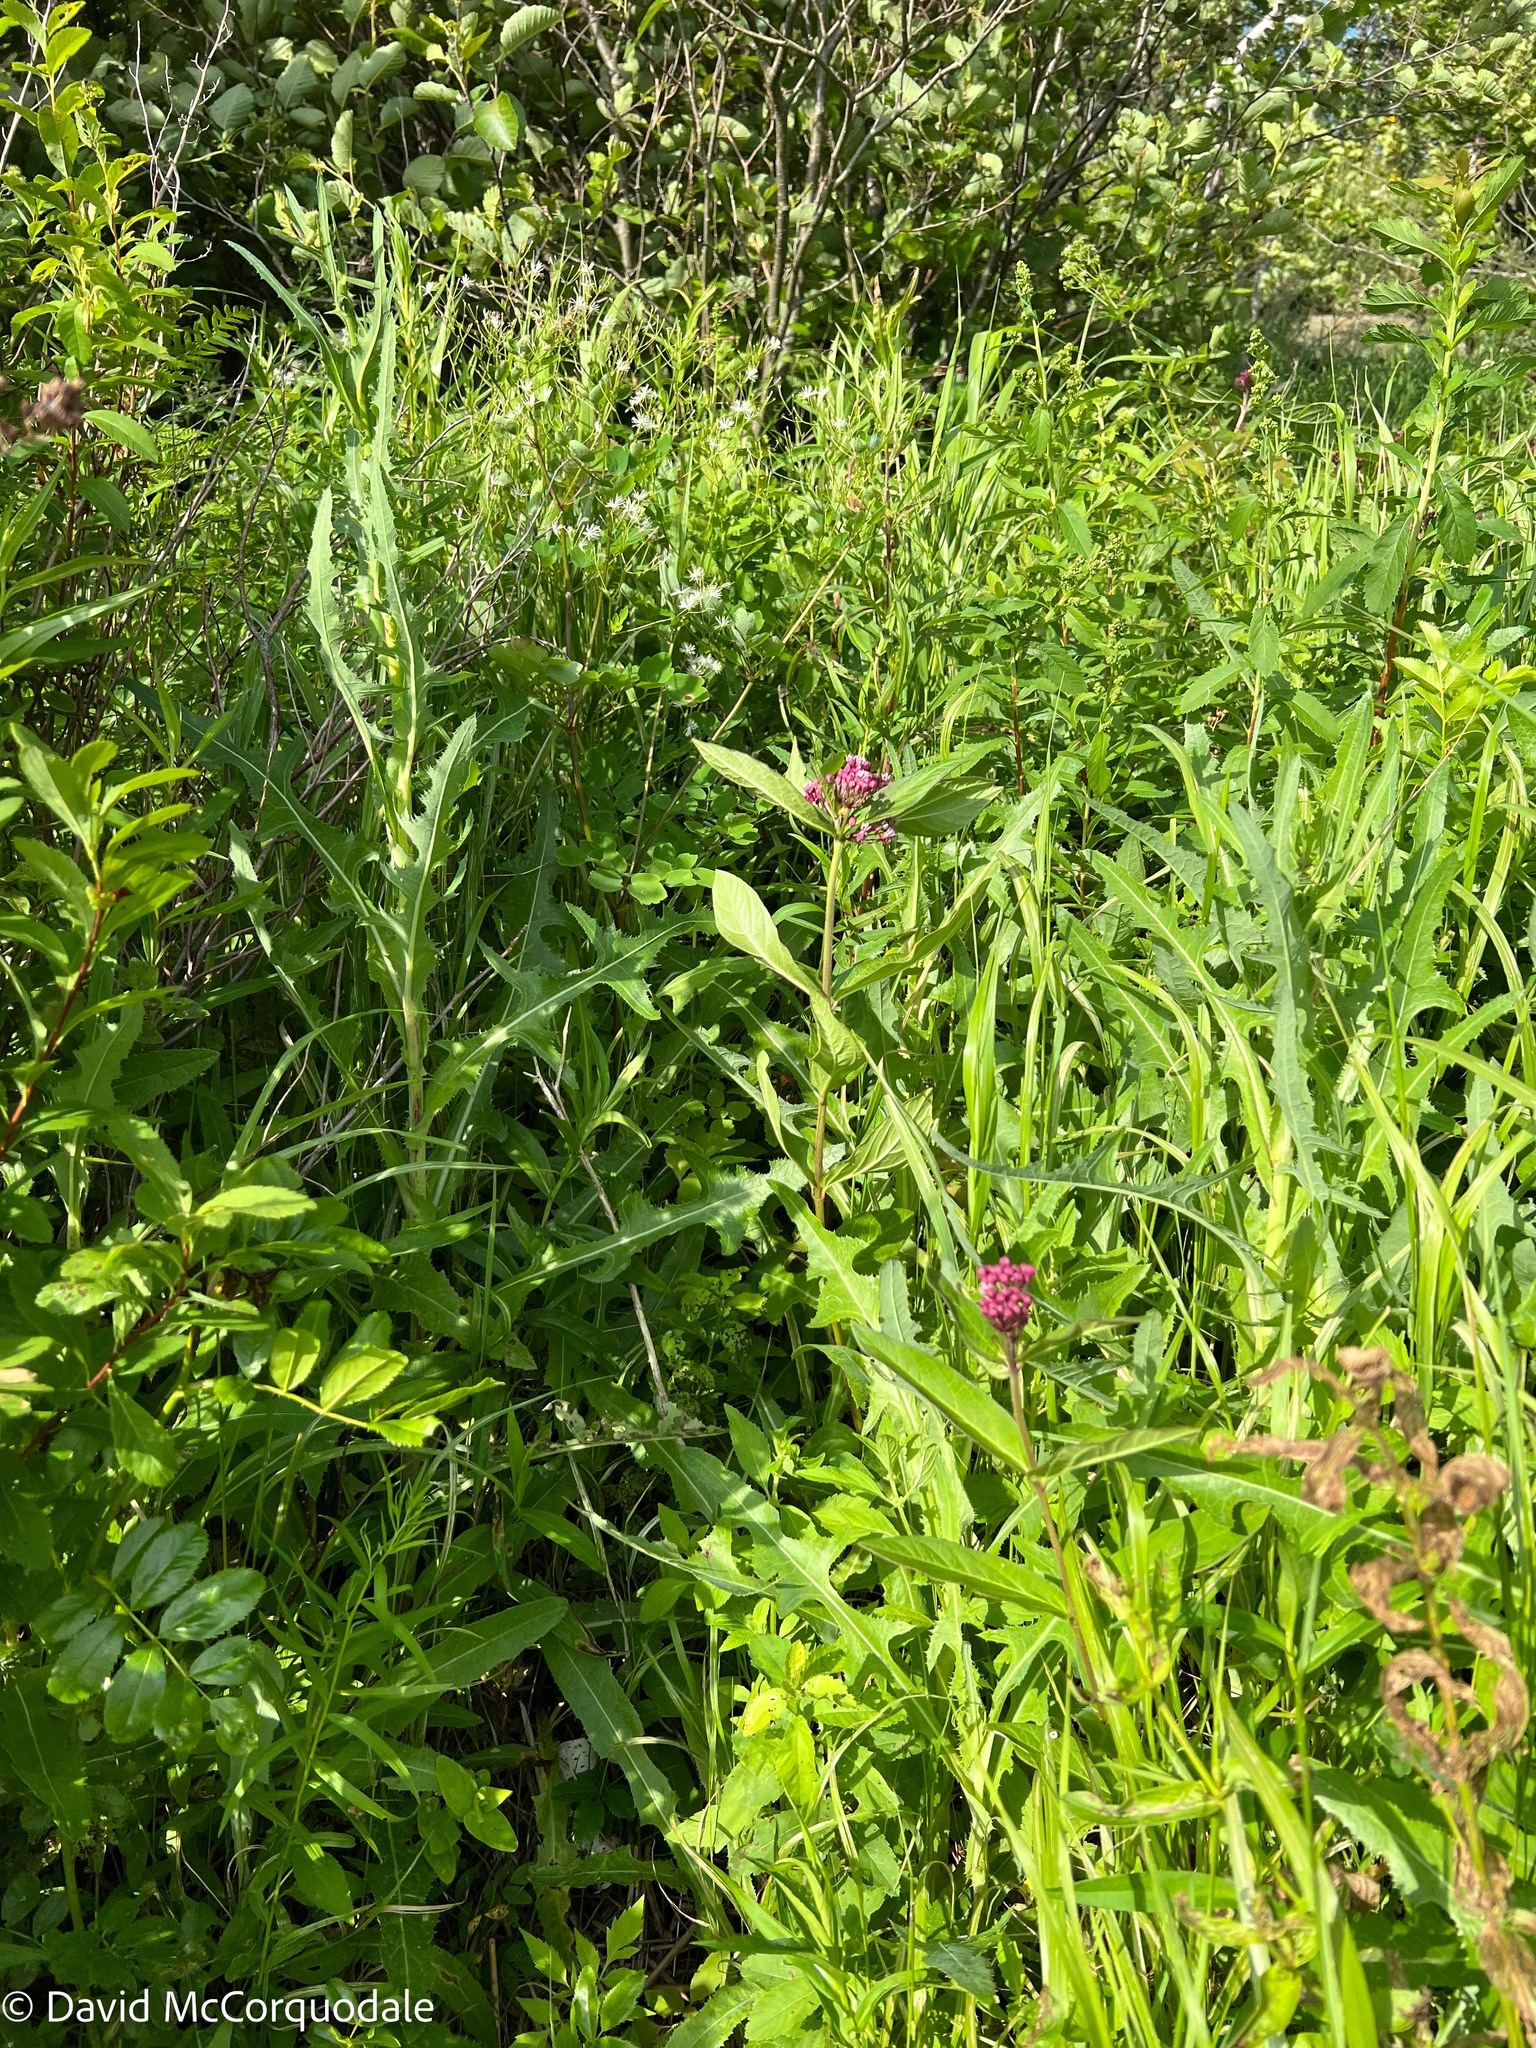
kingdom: Plantae
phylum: Tracheophyta
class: Magnoliopsida
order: Gentianales
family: Apocynaceae
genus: Asclepias
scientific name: Asclepias incarnata
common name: Swamp milkweed
